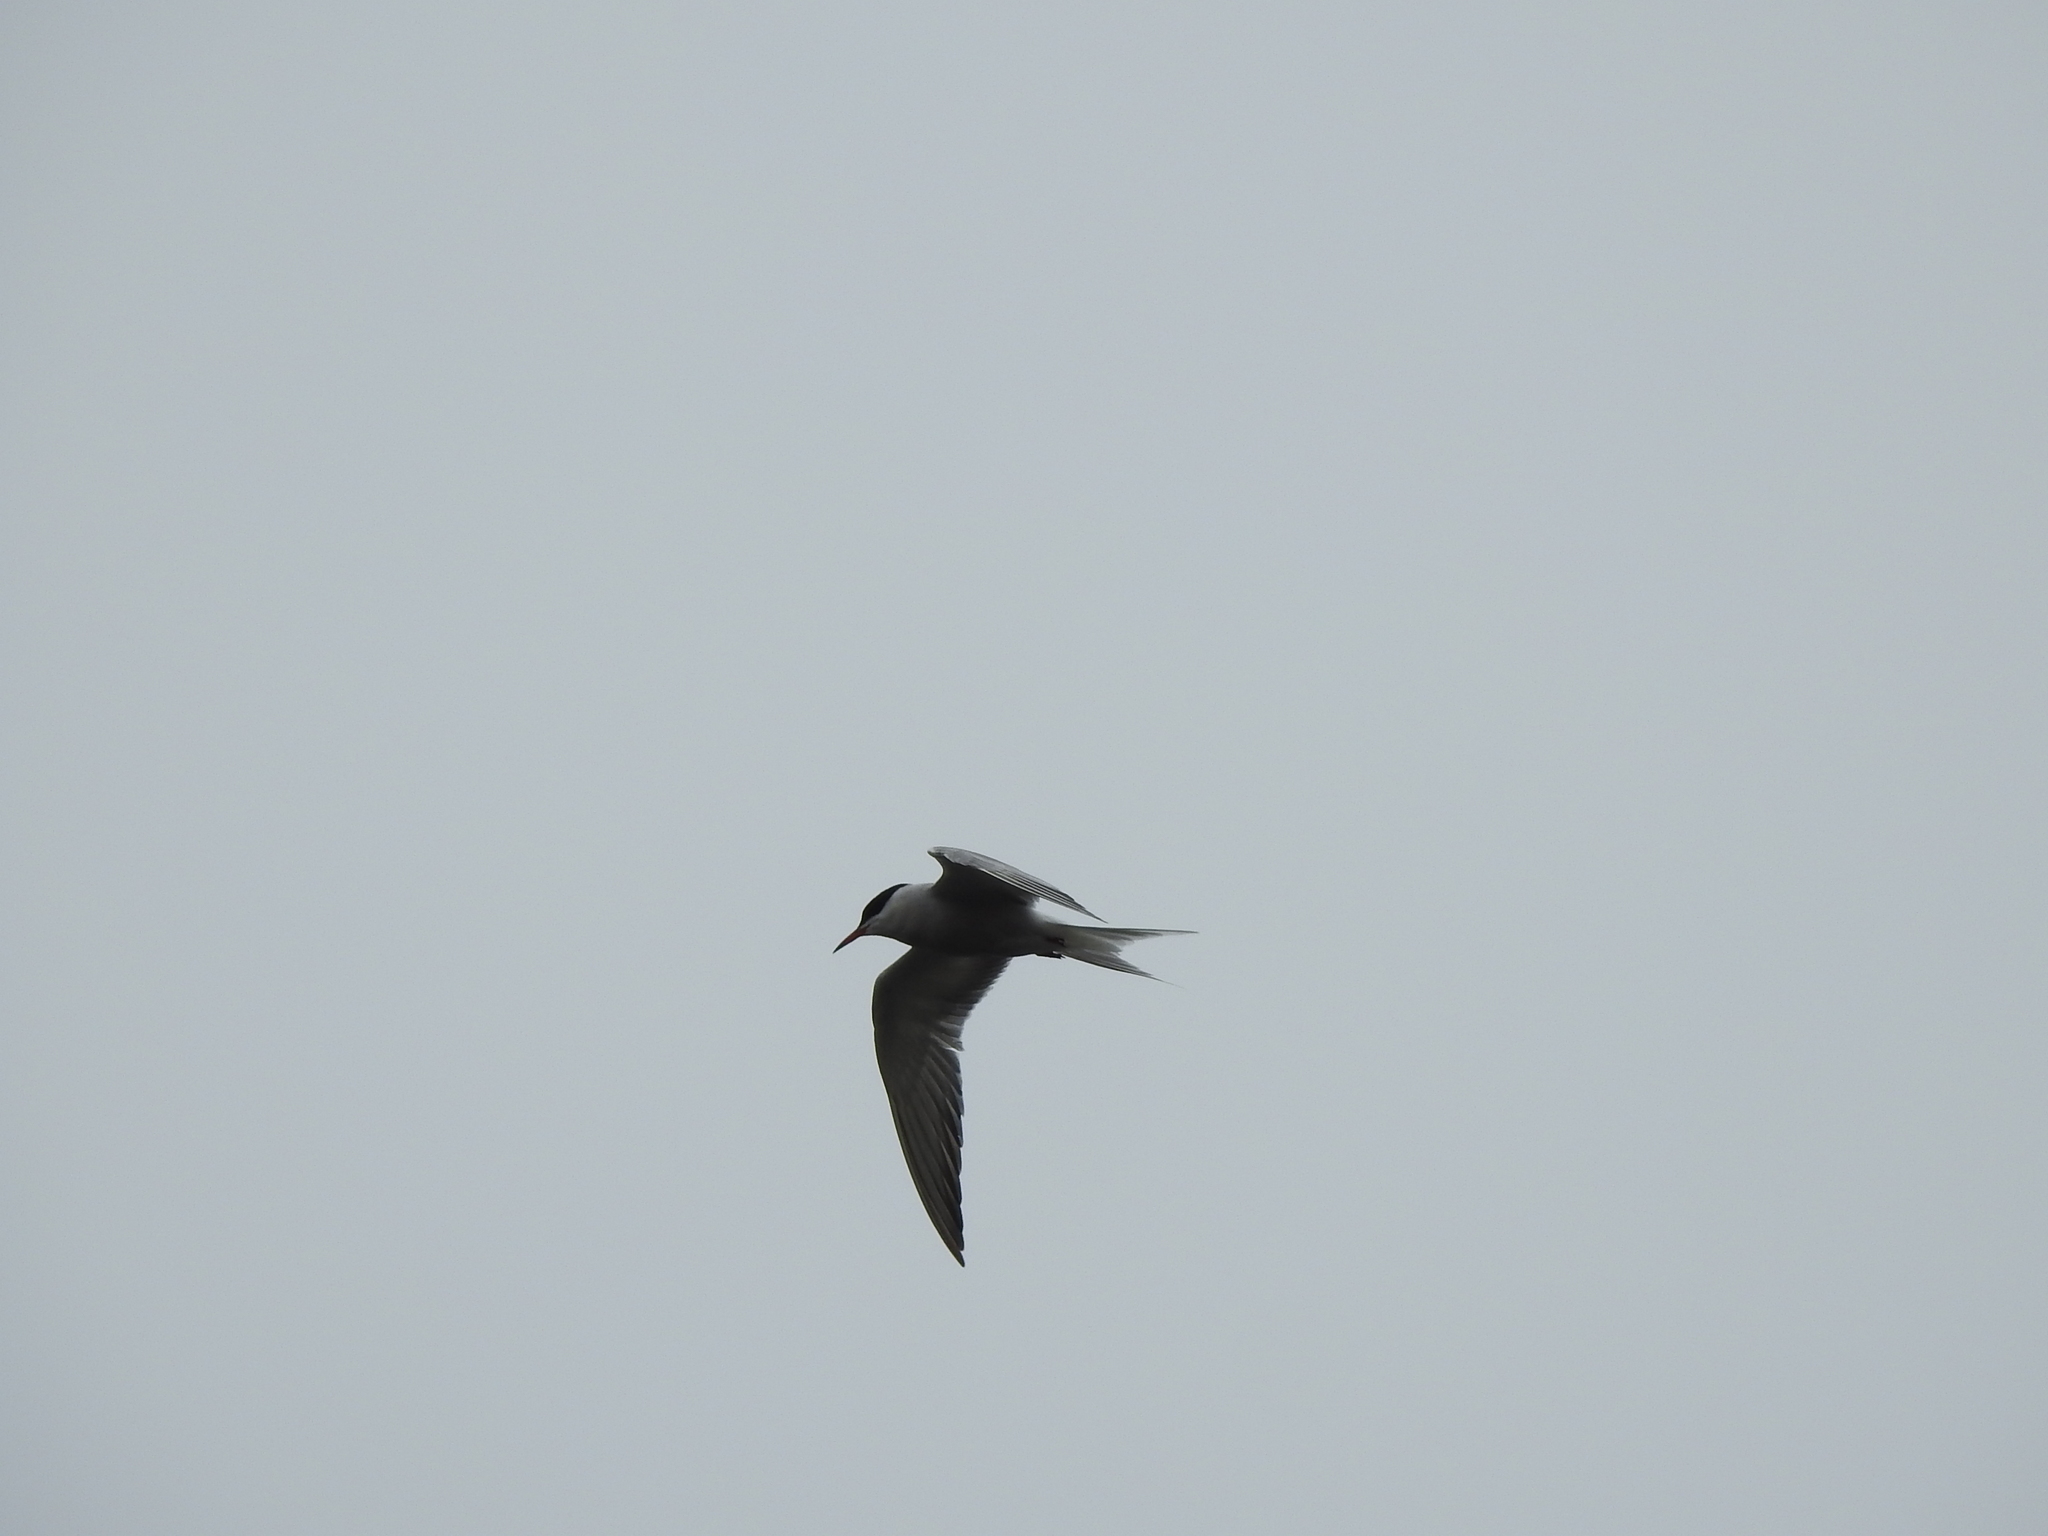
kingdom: Animalia
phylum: Chordata
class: Aves
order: Charadriiformes
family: Laridae
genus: Sterna
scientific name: Sterna hirundo
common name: Common tern
